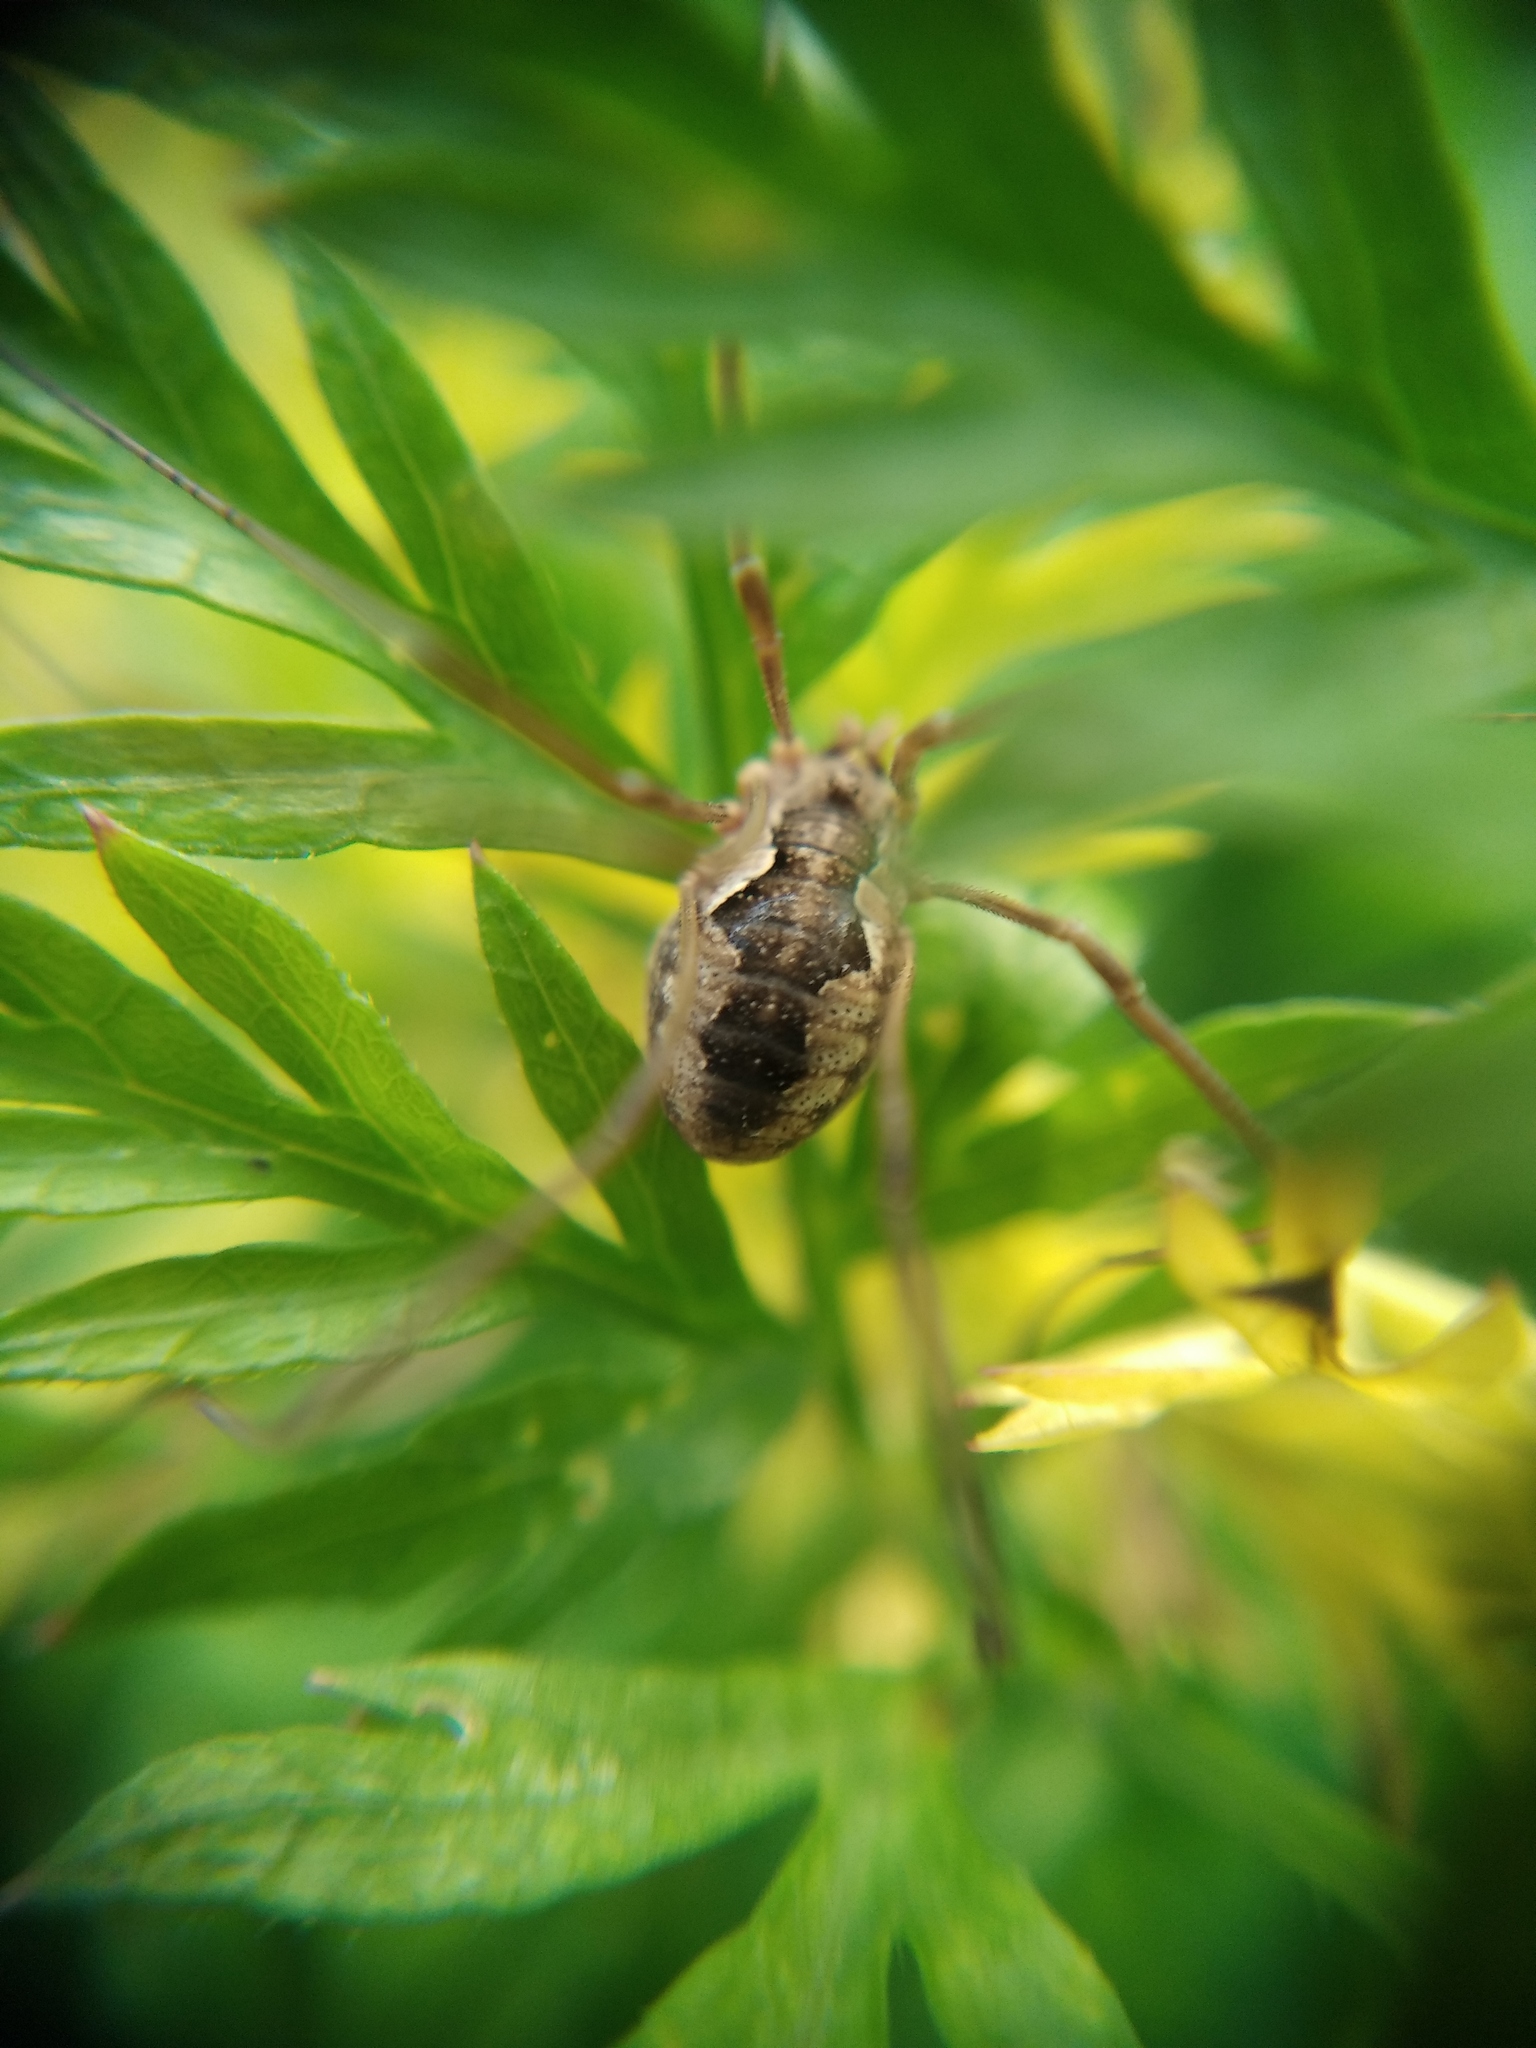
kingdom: Animalia
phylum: Arthropoda
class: Arachnida
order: Opiliones
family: Phalangiidae
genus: Phalangium
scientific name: Phalangium opilio
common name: Daddy longleg
